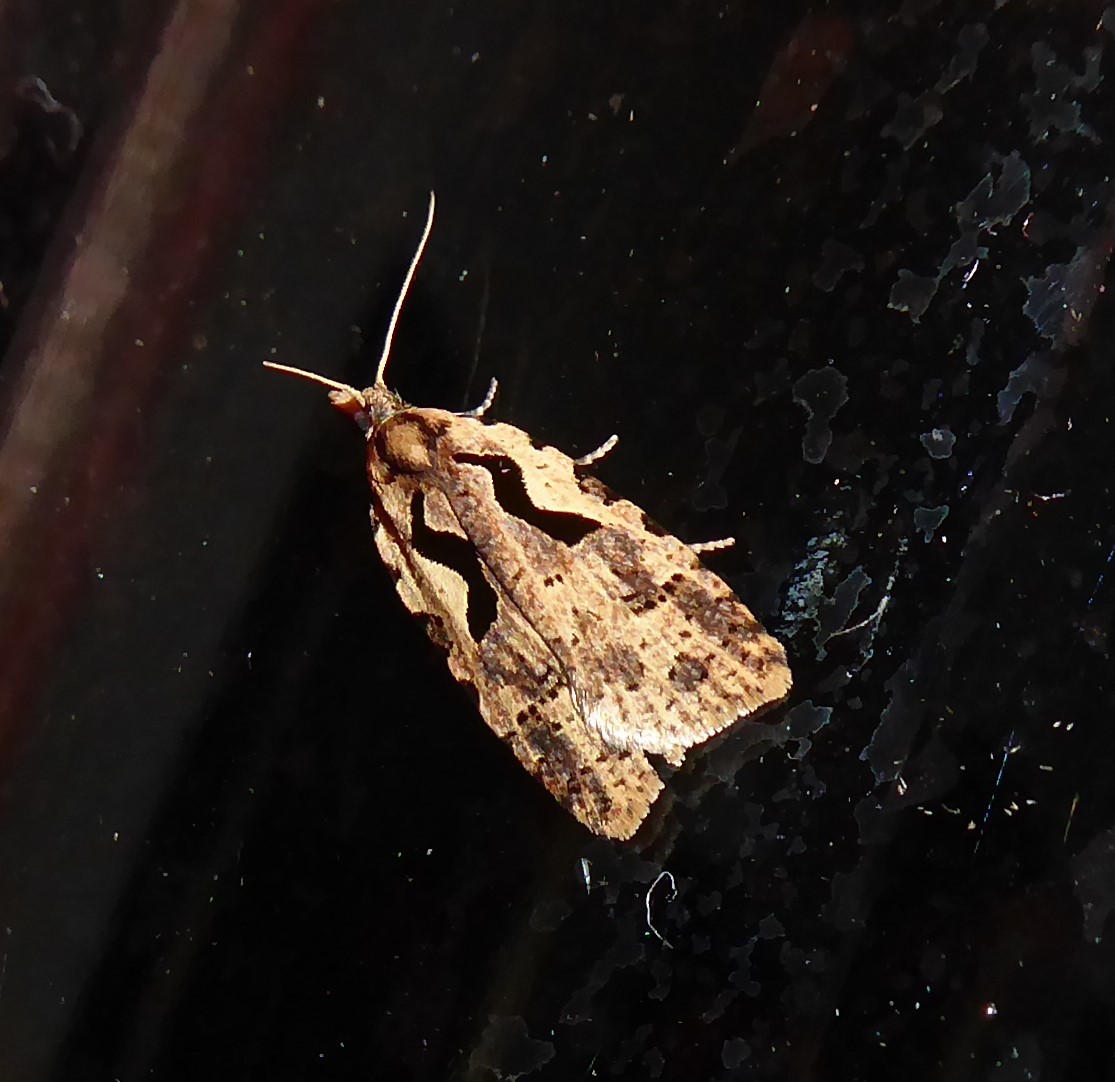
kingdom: Animalia
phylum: Arthropoda
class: Insecta
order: Lepidoptera
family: Tortricidae
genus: Cnephasia
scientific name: Cnephasia jactatana
